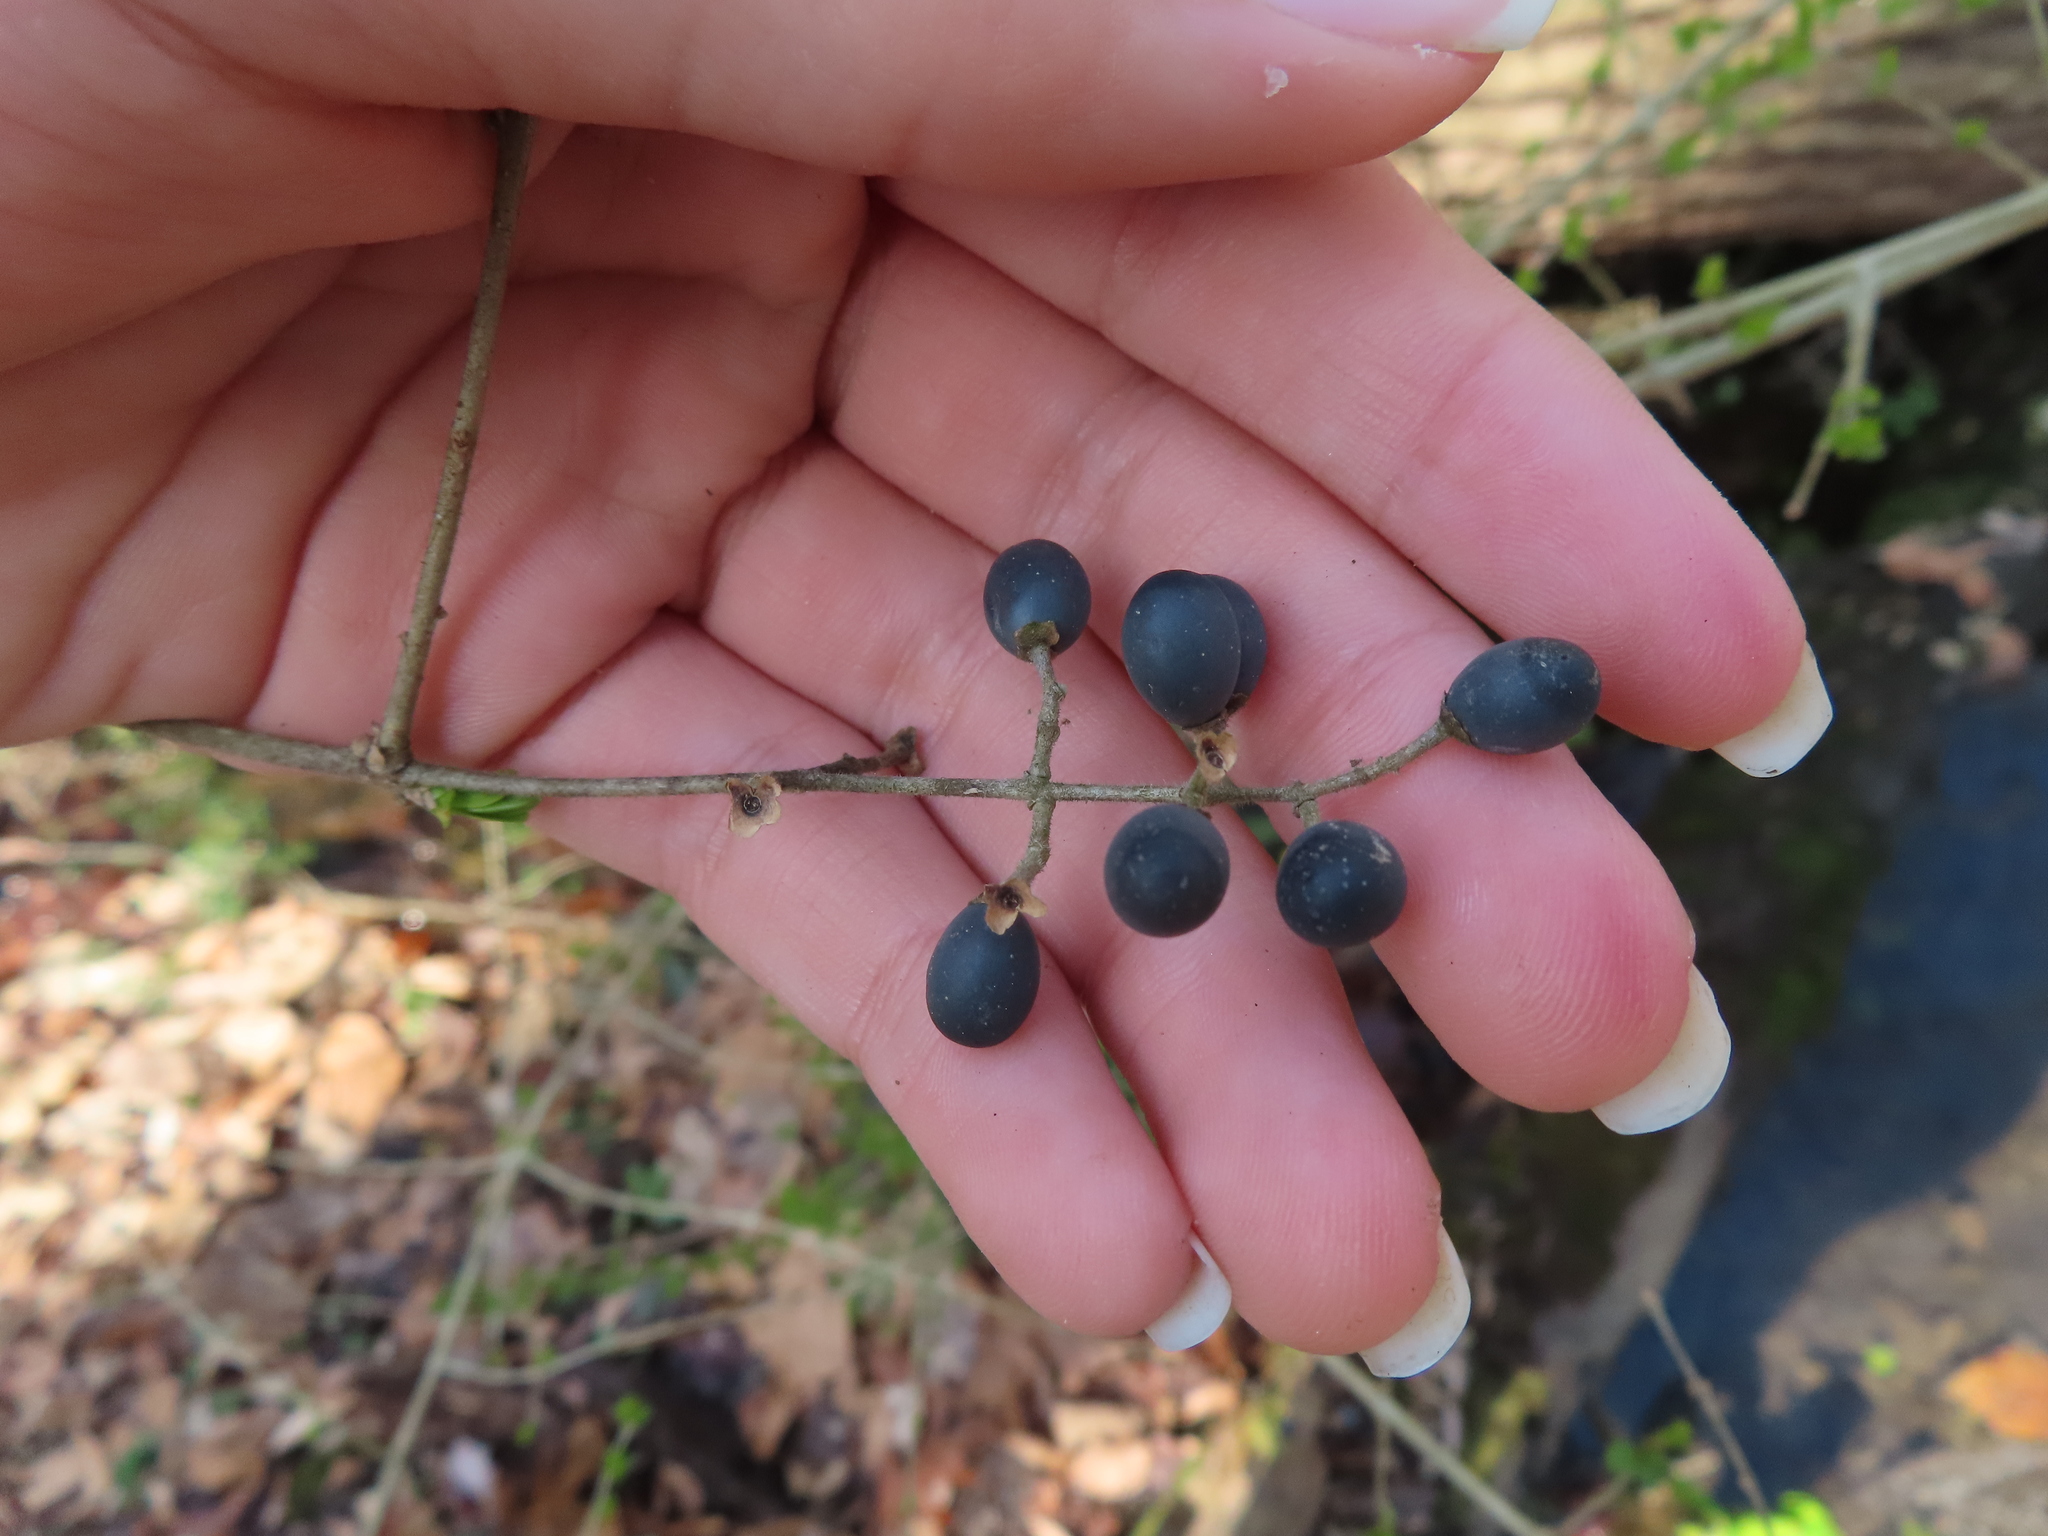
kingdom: Plantae
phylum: Tracheophyta
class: Magnoliopsida
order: Lamiales
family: Oleaceae
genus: Ligustrum
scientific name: Ligustrum obtusifolium
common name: Border privet
